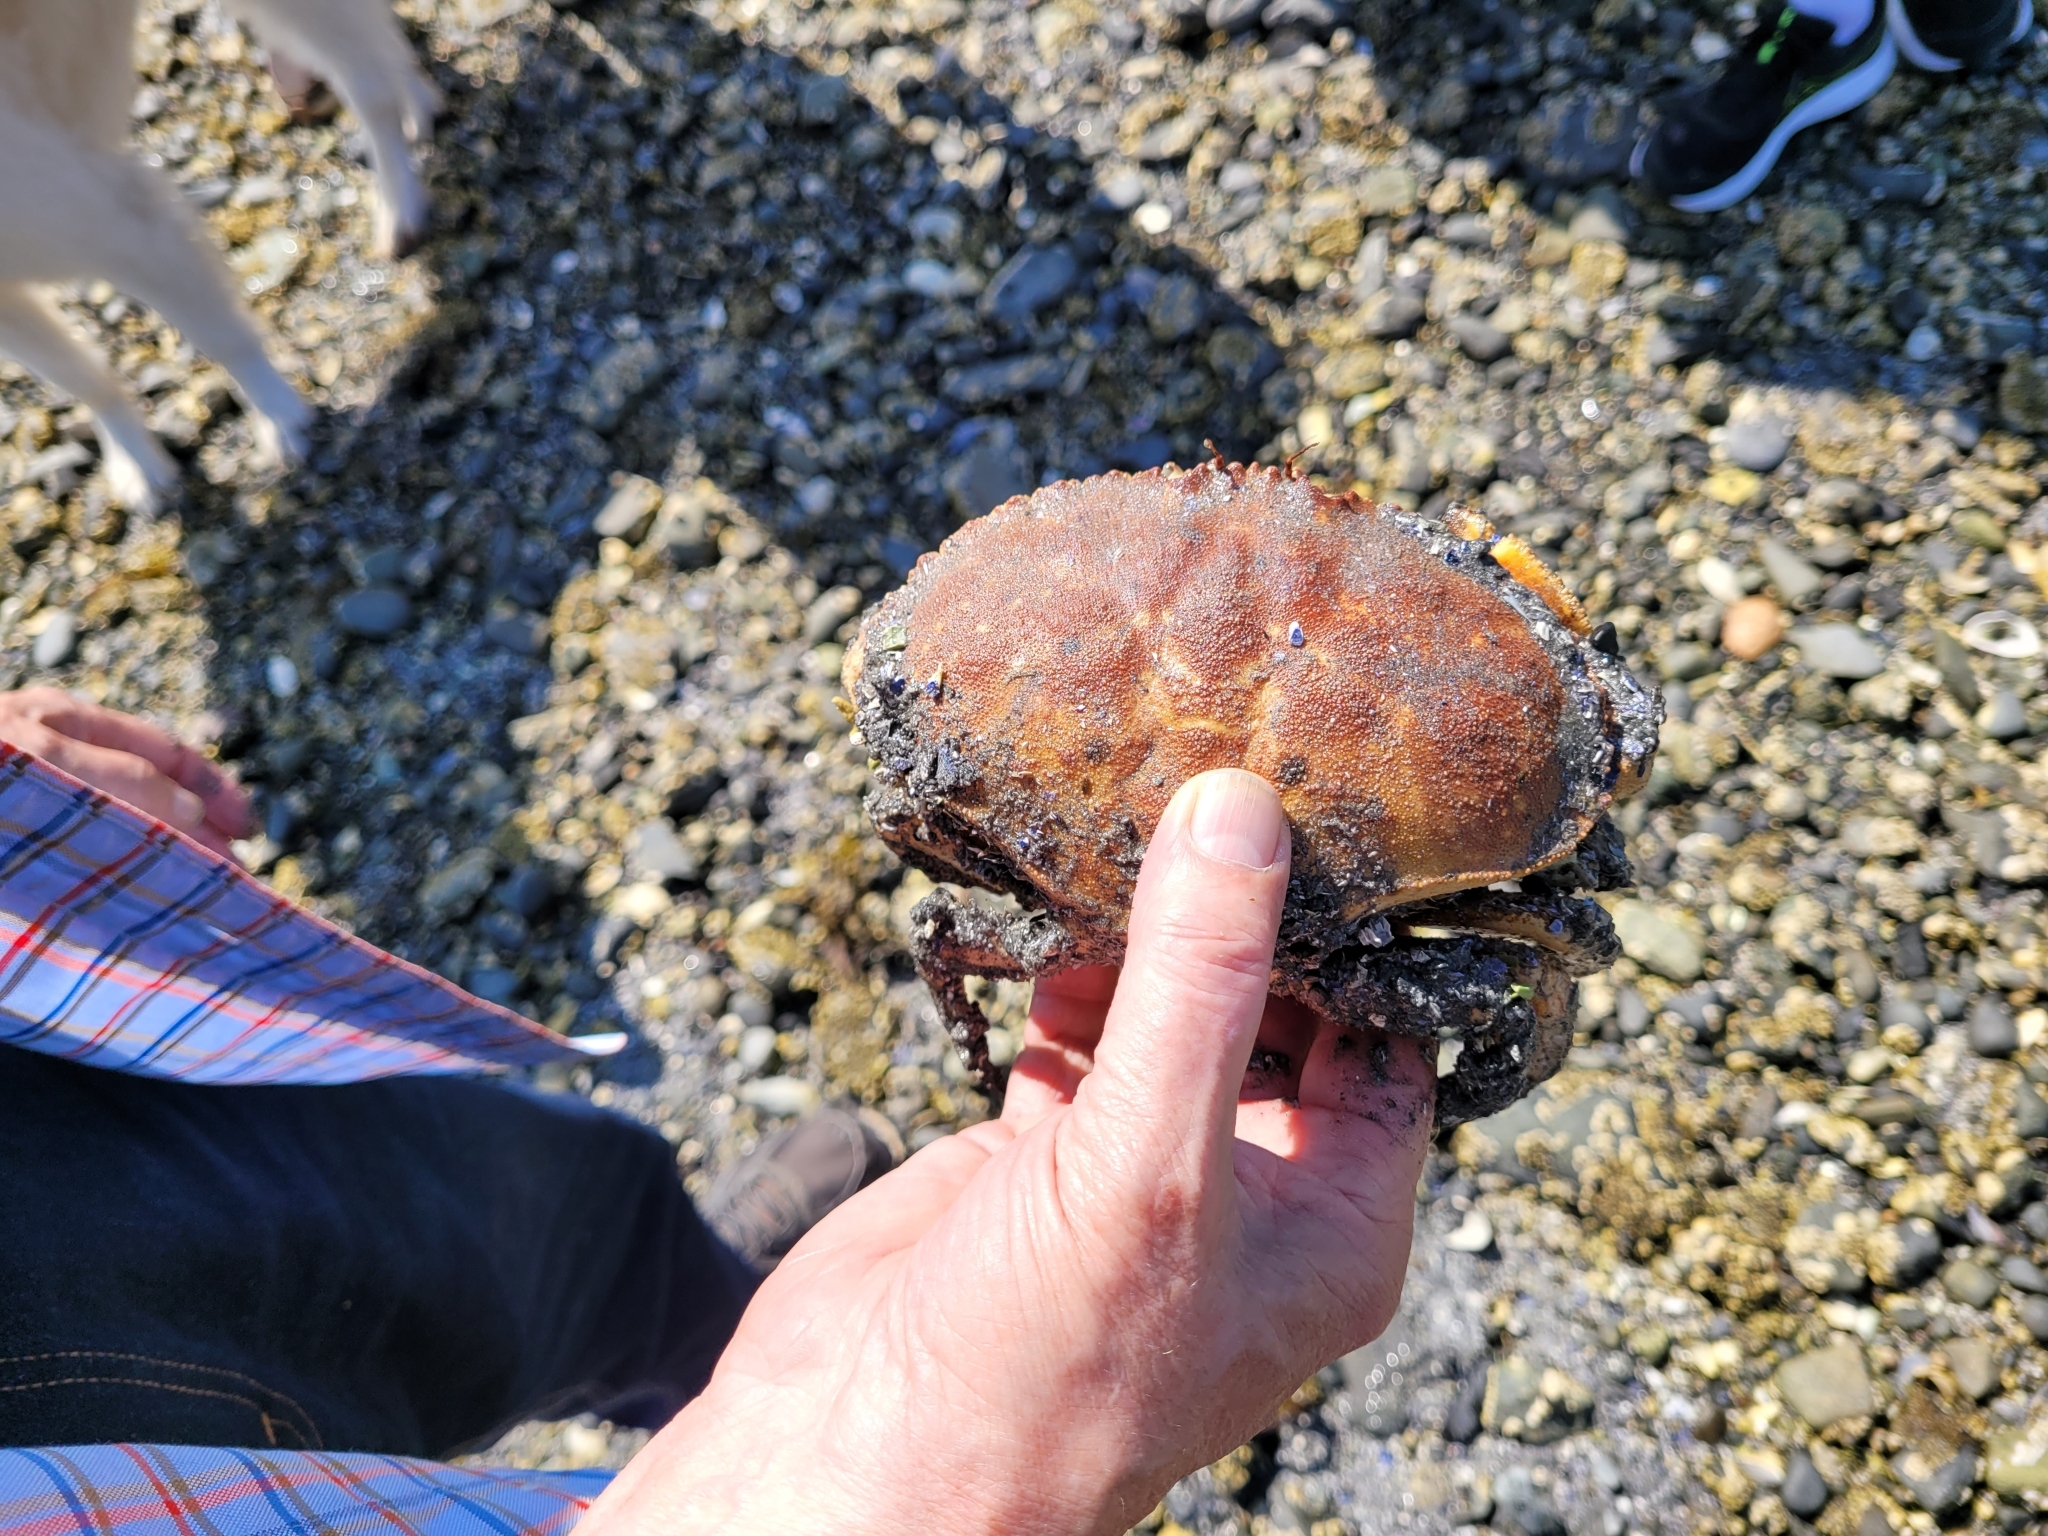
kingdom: Animalia
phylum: Arthropoda
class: Malacostraca
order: Decapoda
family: Cancridae
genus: Cancer
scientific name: Cancer borealis
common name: Jonah crab
